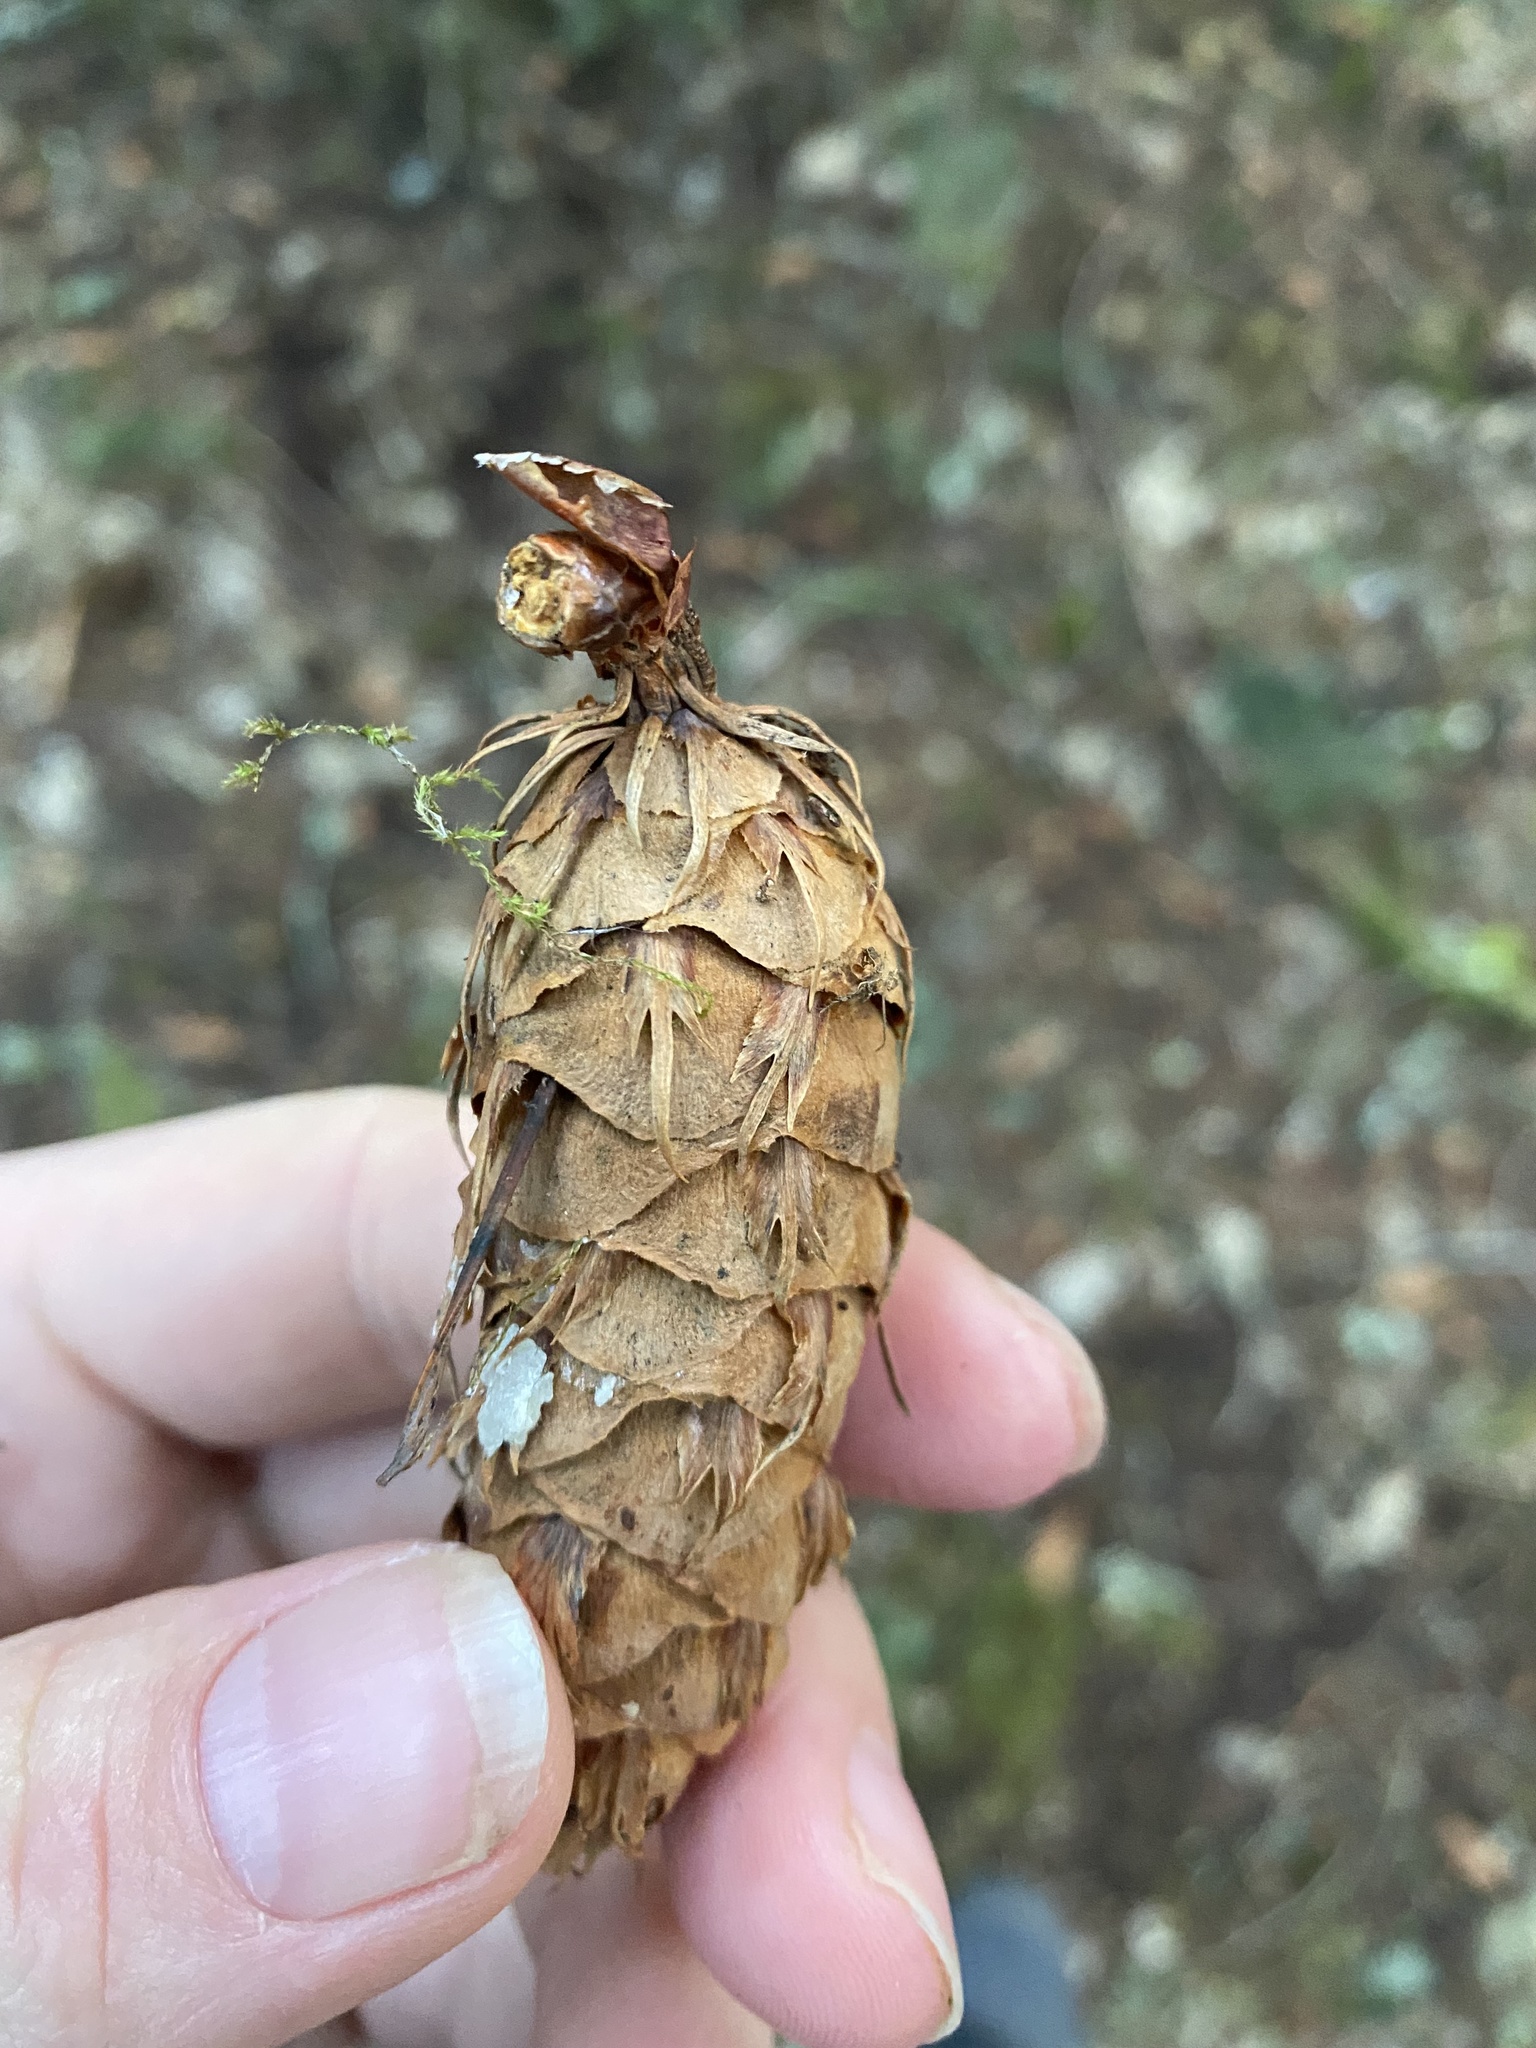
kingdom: Plantae
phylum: Tracheophyta
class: Pinopsida
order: Pinales
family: Pinaceae
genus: Pseudotsuga
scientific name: Pseudotsuga menziesii
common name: Douglas fir
